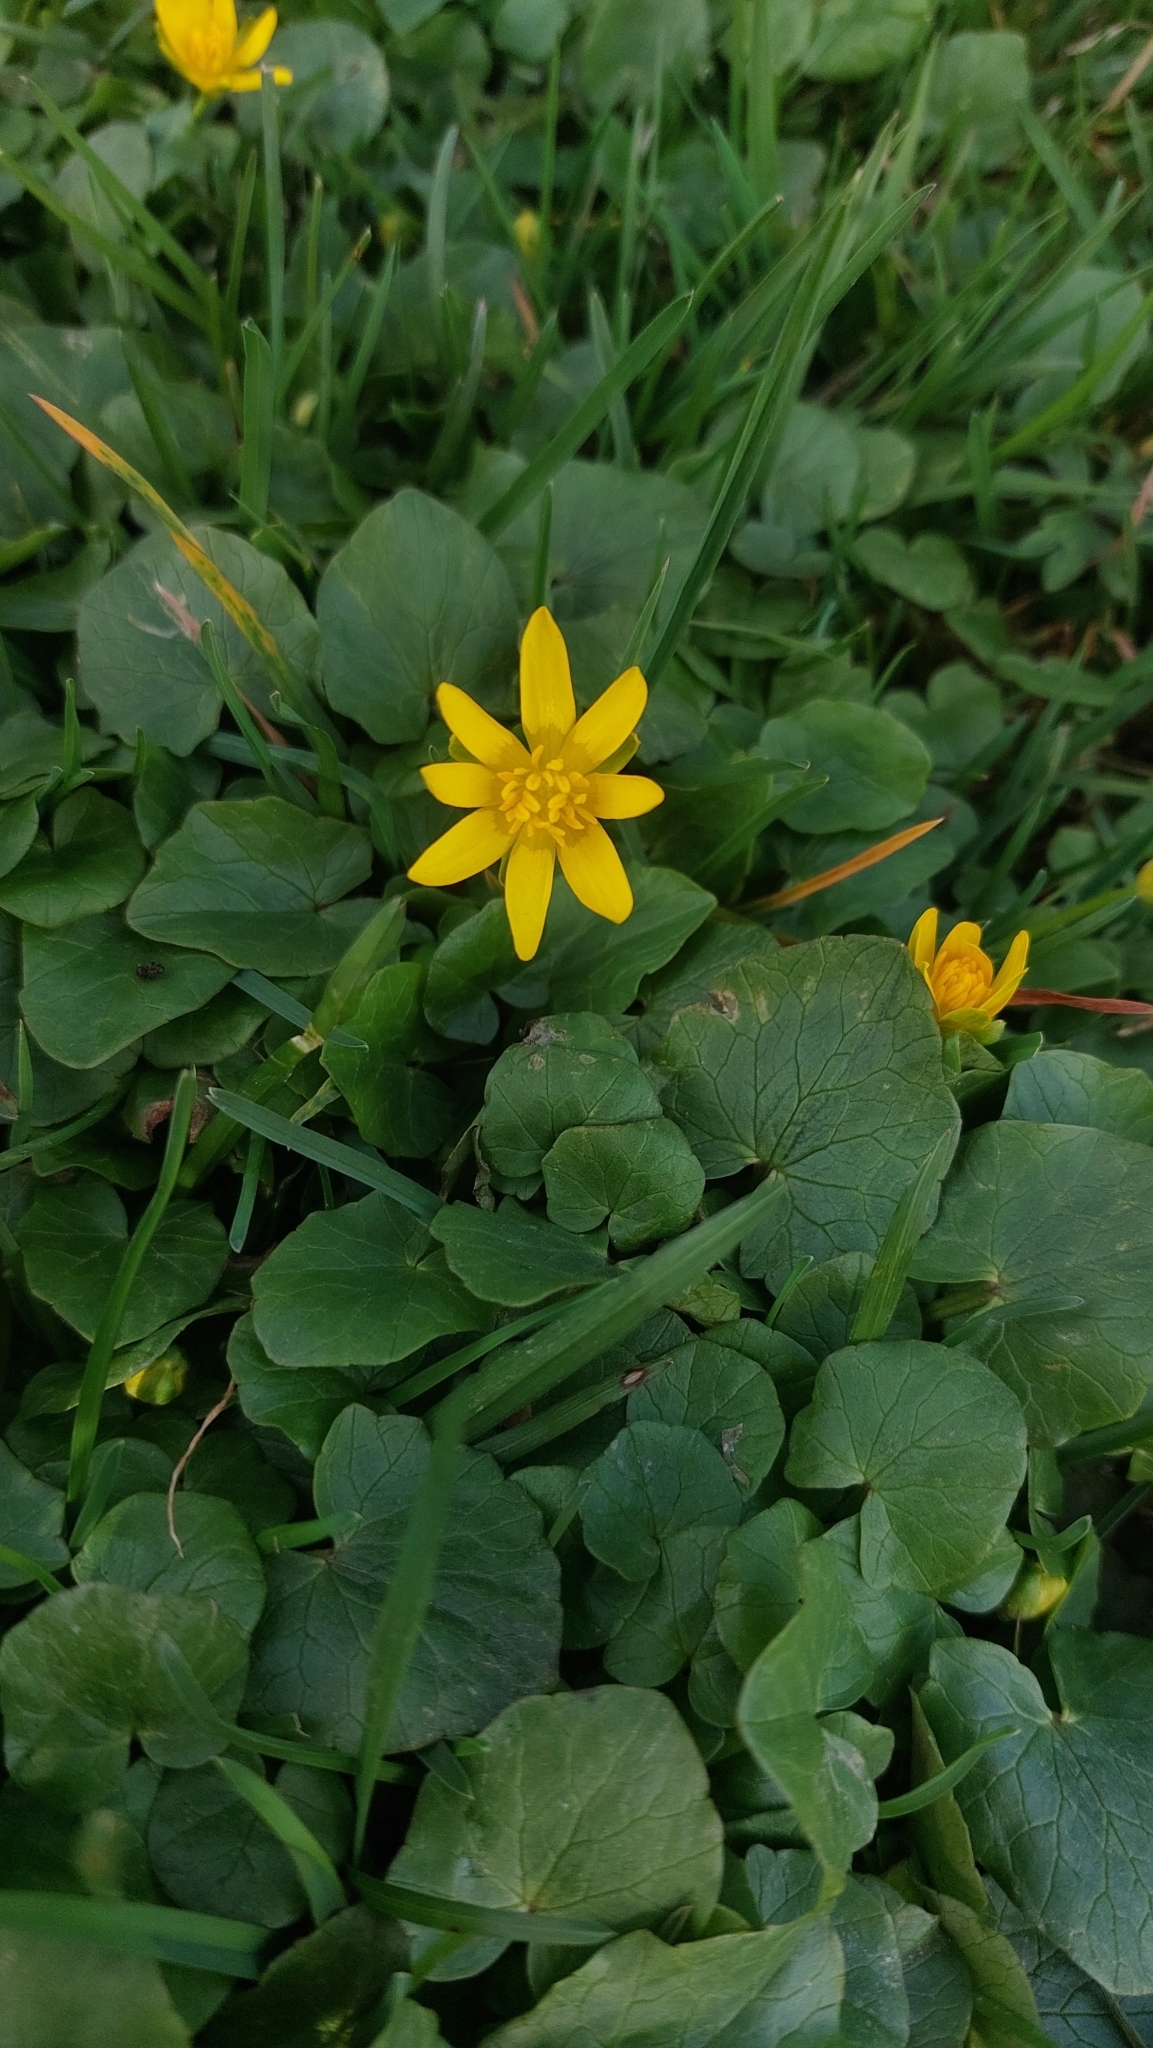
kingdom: Plantae
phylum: Tracheophyta
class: Magnoliopsida
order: Ranunculales
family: Ranunculaceae
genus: Ficaria
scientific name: Ficaria verna
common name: Lesser celandine
